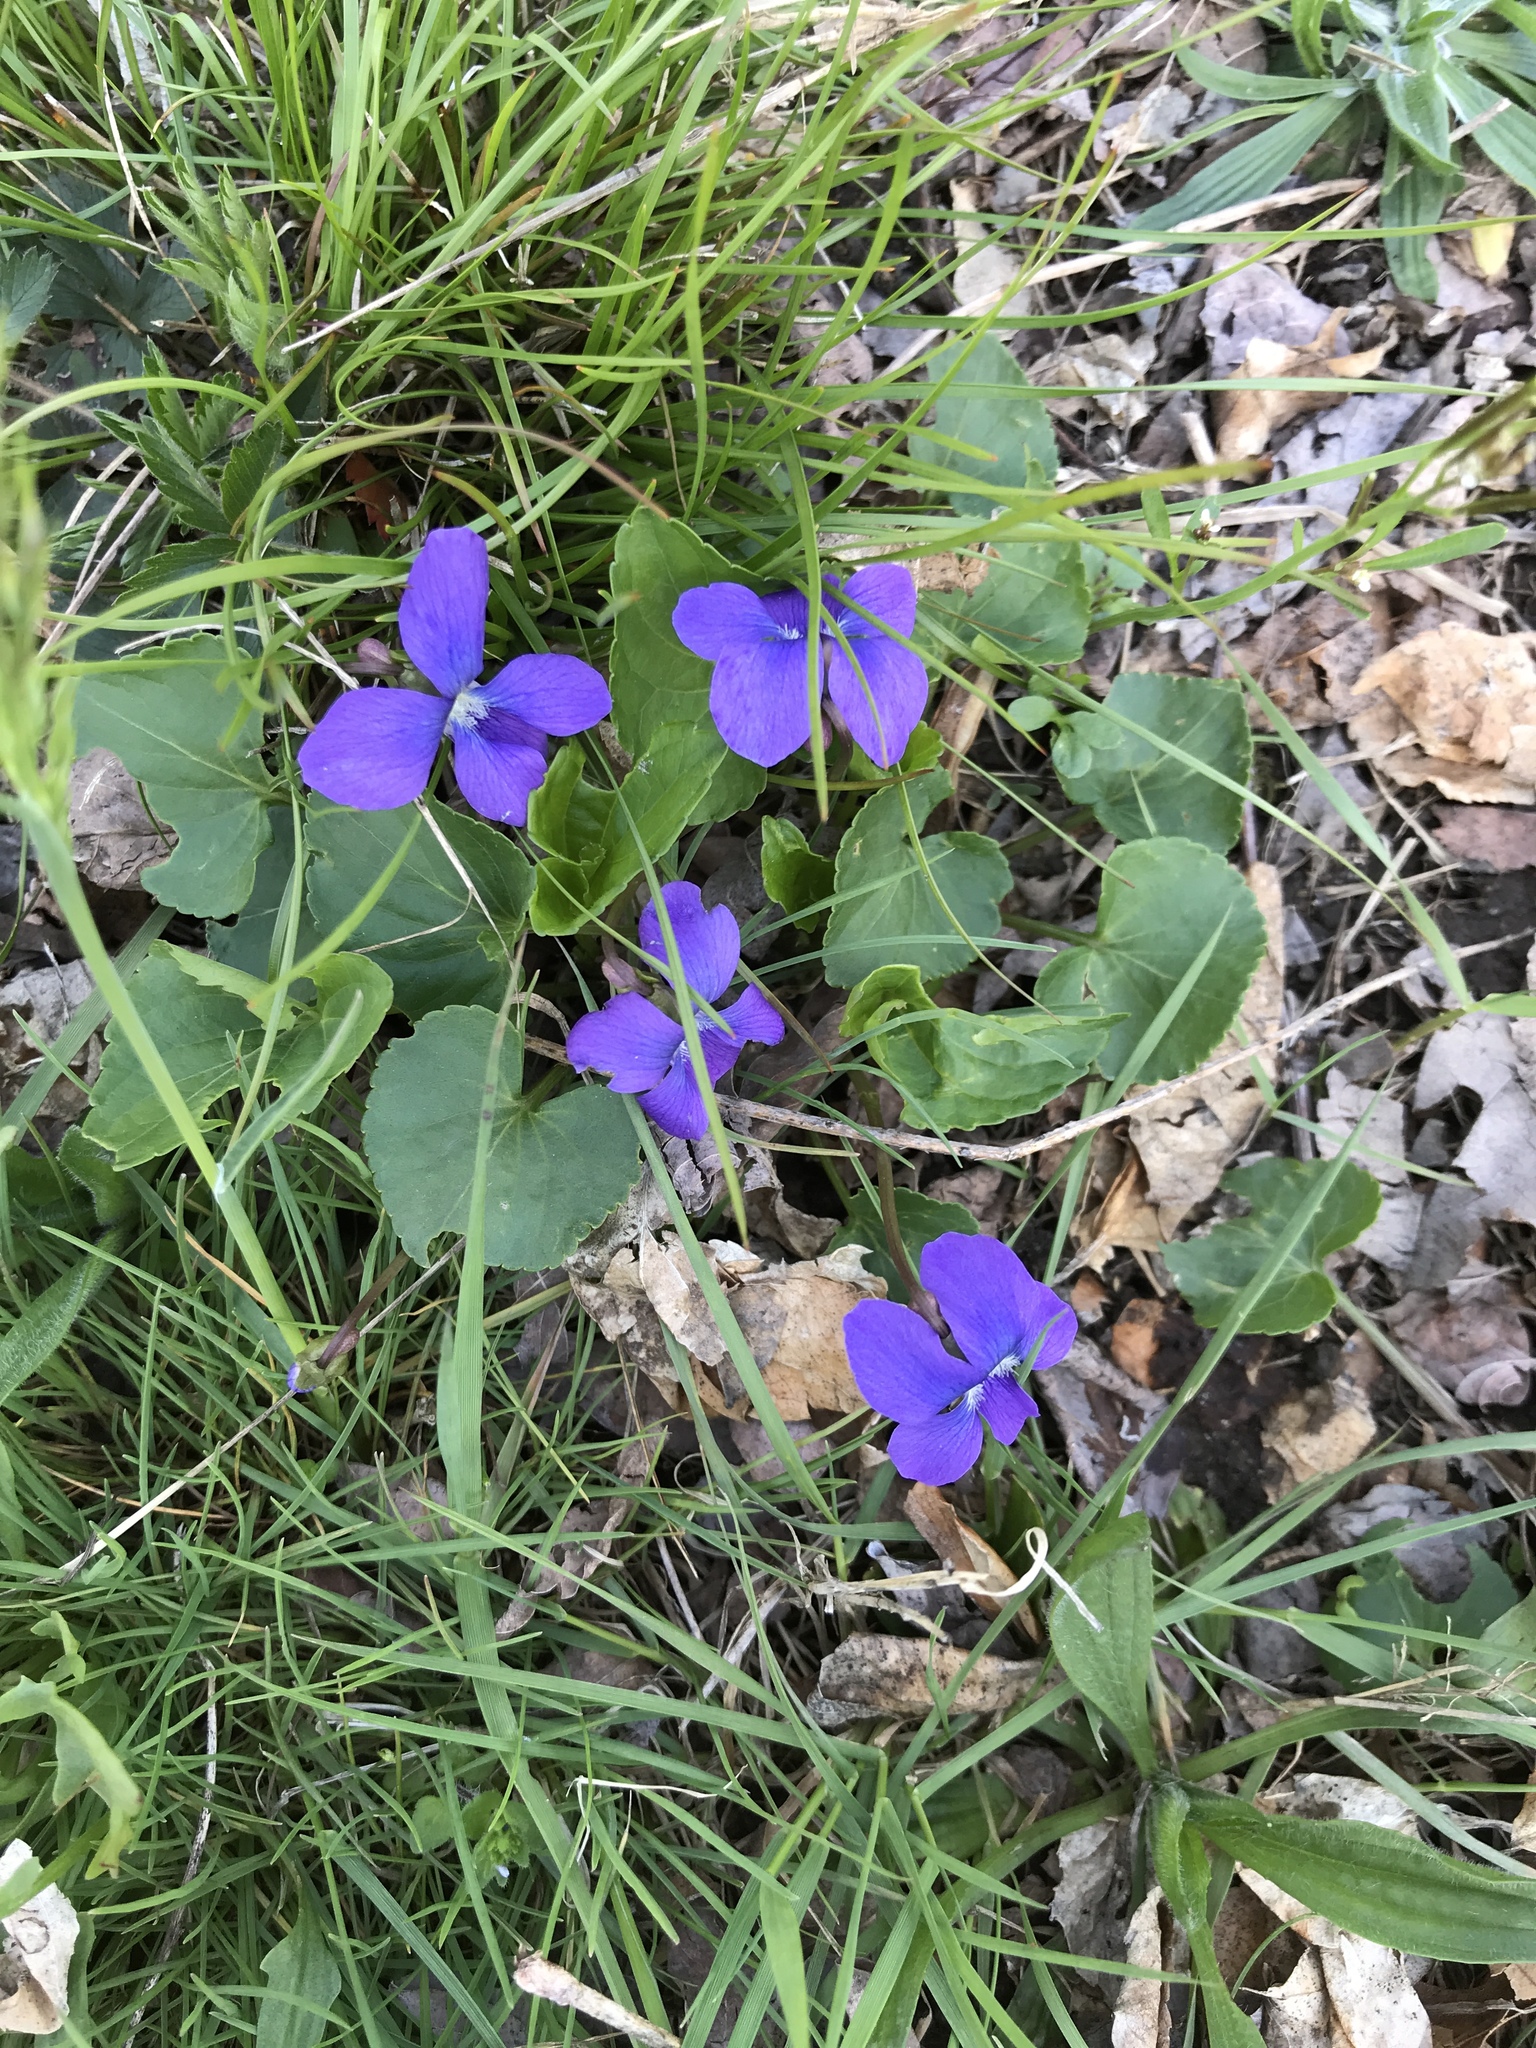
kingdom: Plantae
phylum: Tracheophyta
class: Magnoliopsida
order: Malpighiales
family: Violaceae
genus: Viola
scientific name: Viola sororia
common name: Dooryard violet
